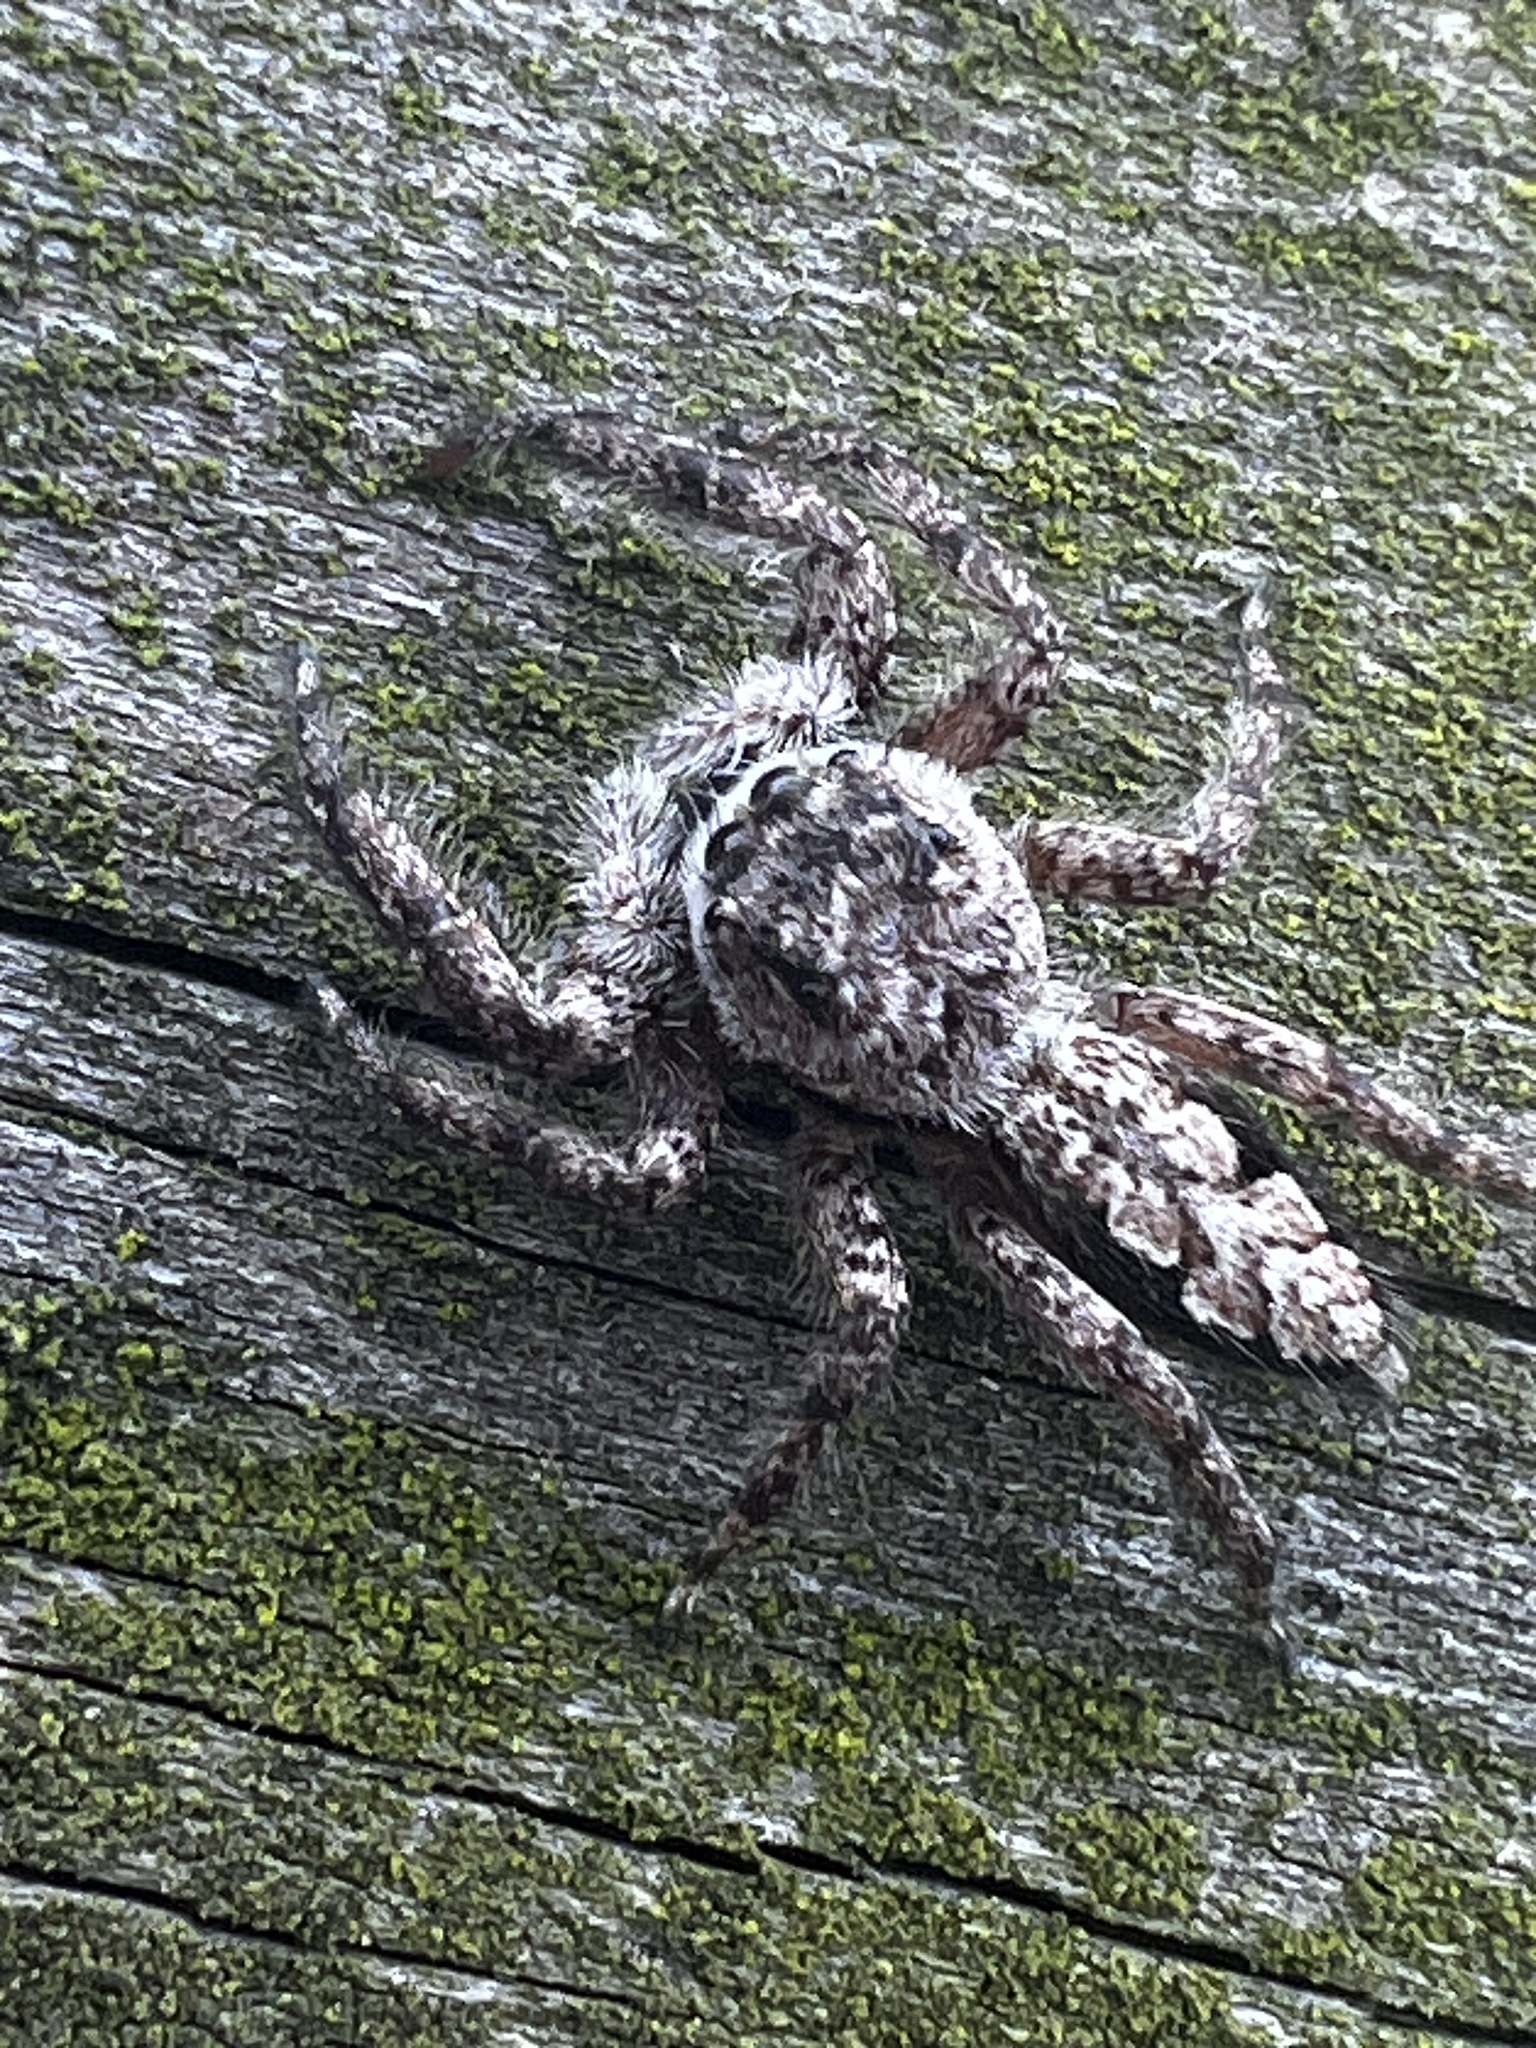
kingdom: Animalia
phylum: Arthropoda
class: Arachnida
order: Araneae
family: Salticidae
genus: Platycryptus
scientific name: Platycryptus undatus
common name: Tan jumping spider
